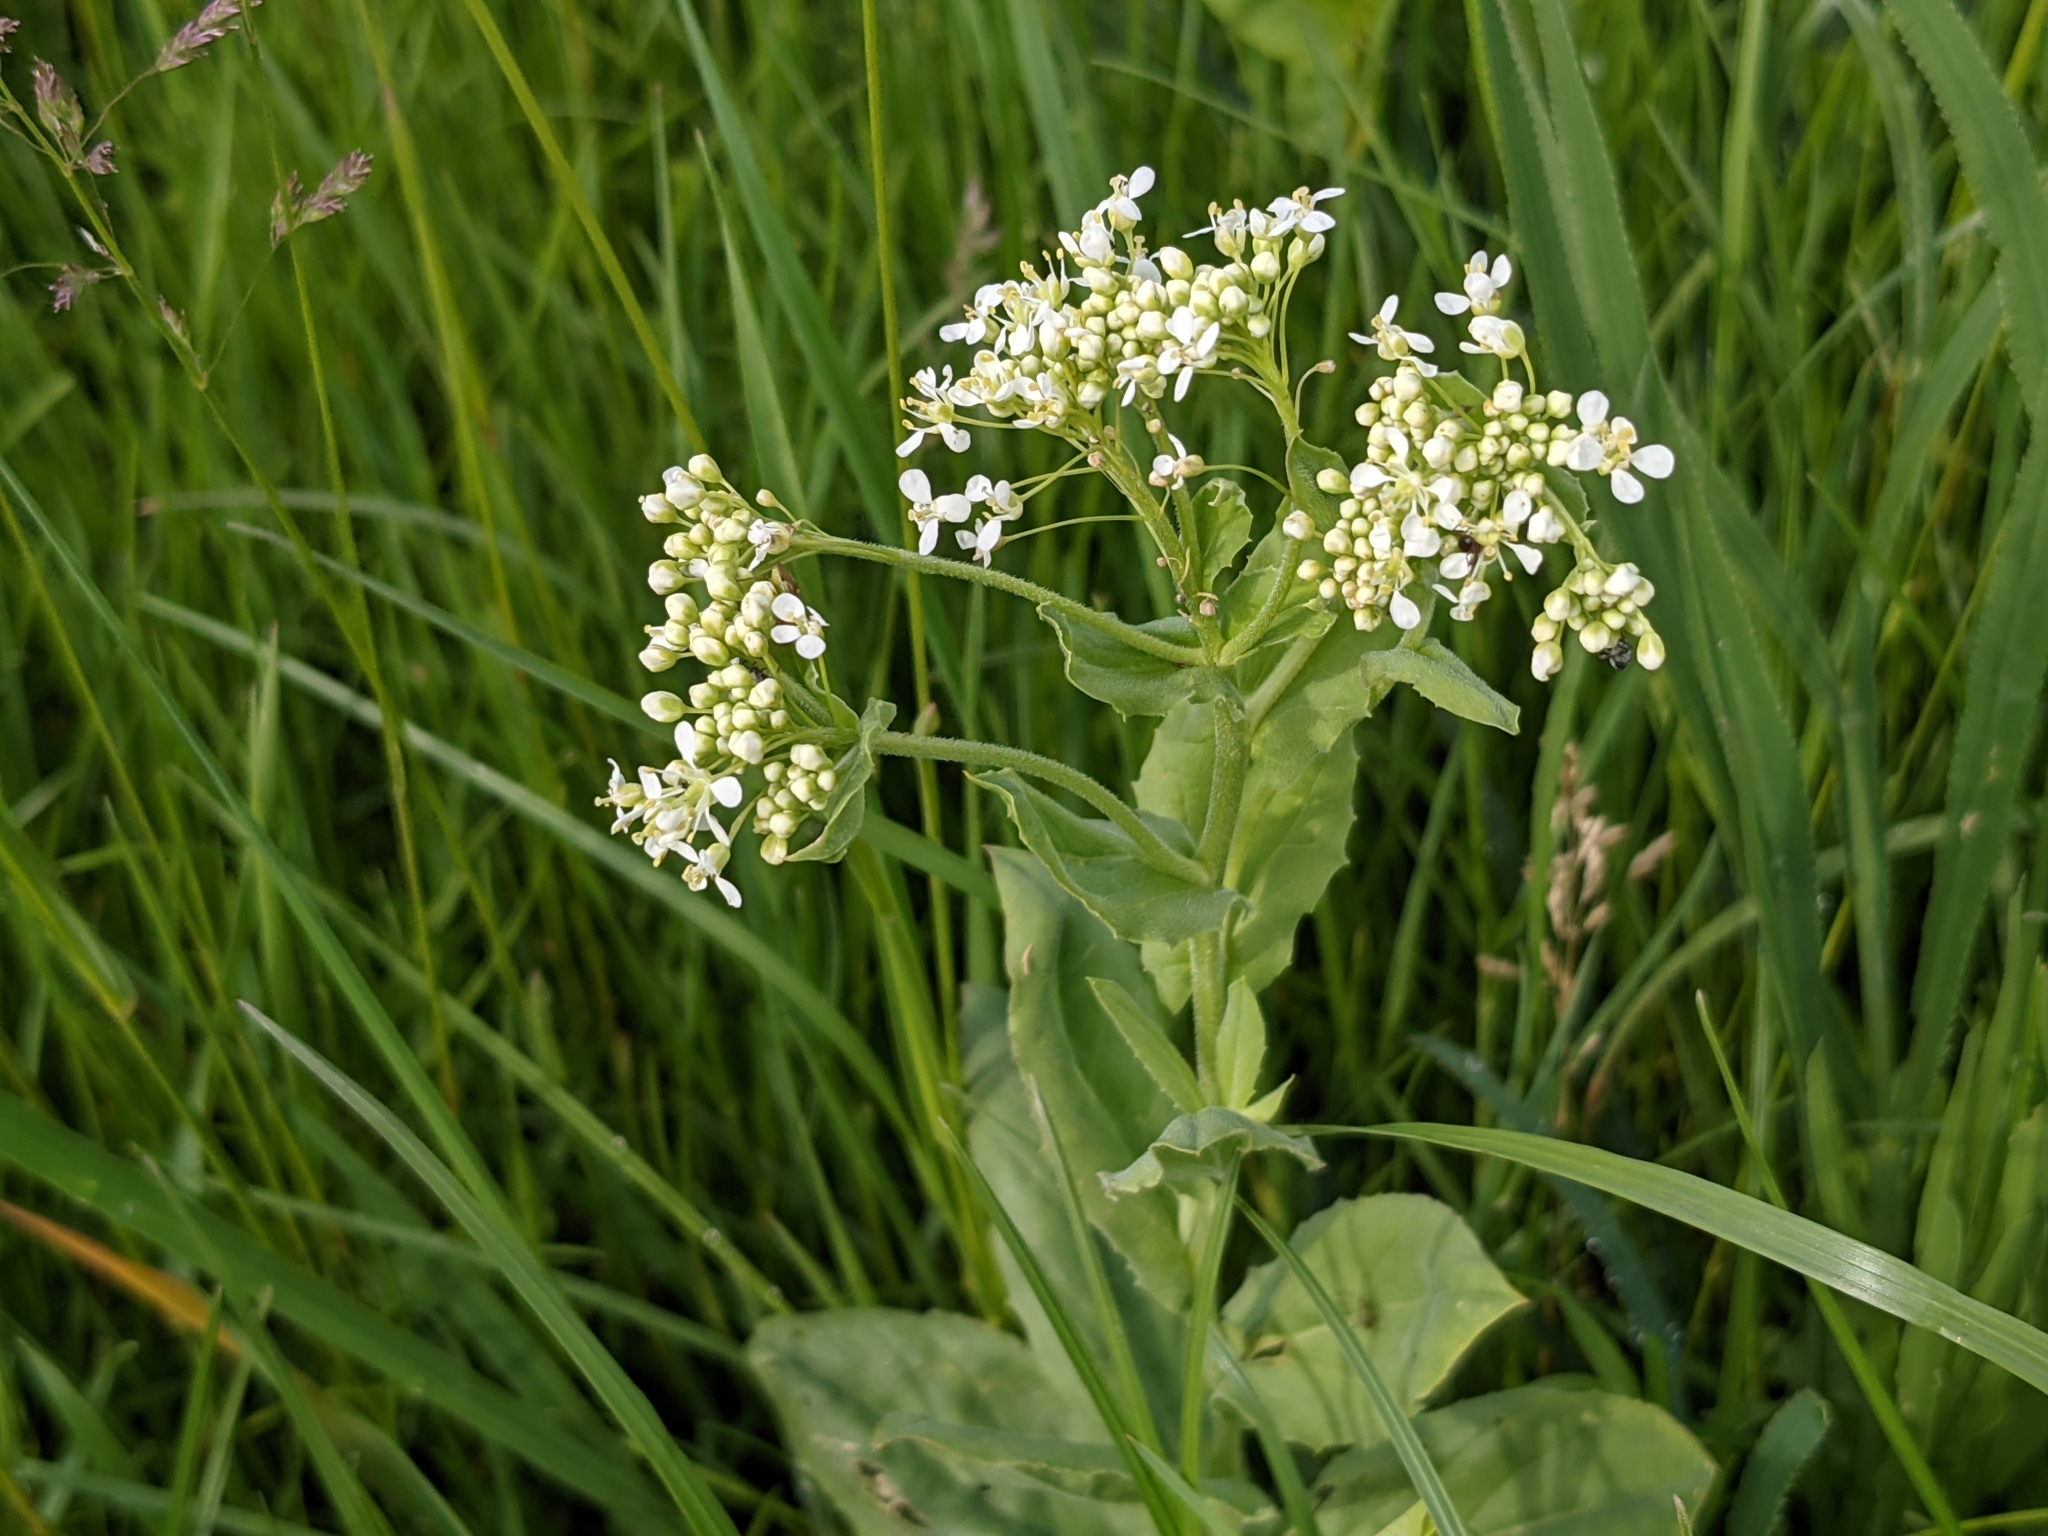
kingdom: Plantae
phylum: Tracheophyta
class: Magnoliopsida
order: Brassicales
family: Brassicaceae
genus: Lepidium
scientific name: Lepidium draba
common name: Hoary cress
